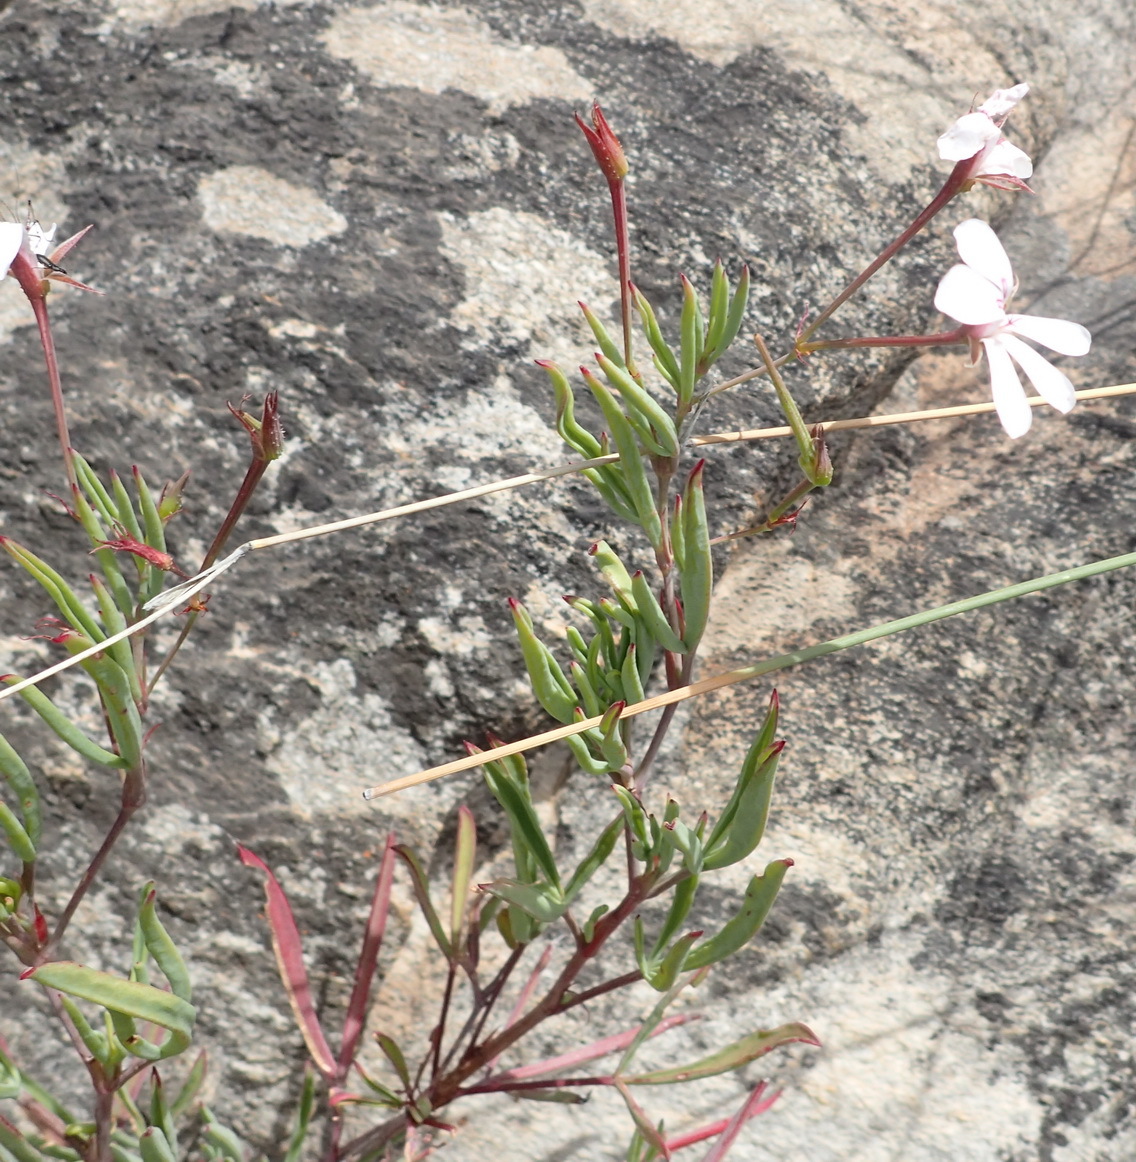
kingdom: Plantae
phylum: Tracheophyta
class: Magnoliopsida
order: Geraniales
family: Geraniaceae
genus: Pelargonium
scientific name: Pelargonium laevigatum
